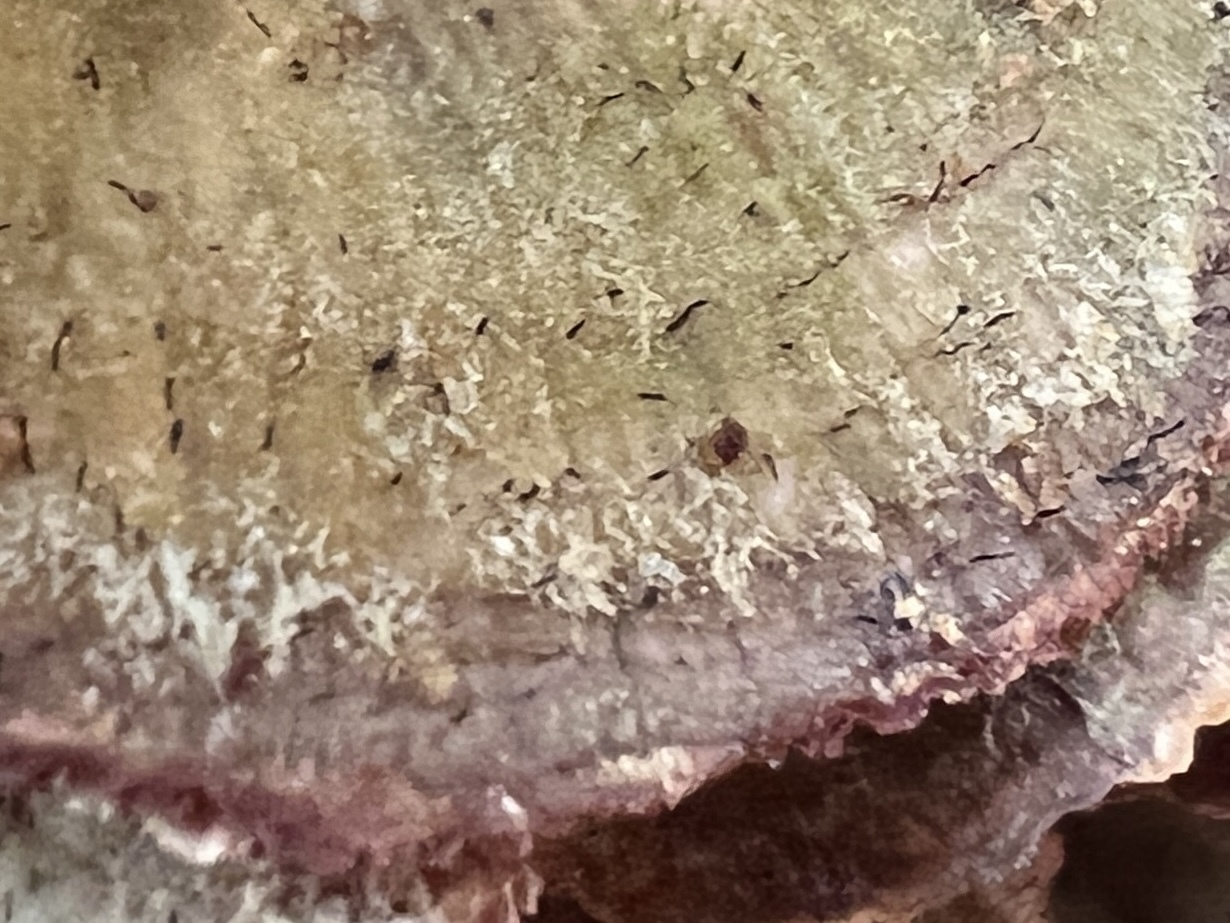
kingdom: Fungi
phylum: Ascomycota
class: Eurotiomycetes
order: Mycocaliciales
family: Mycocaliciaceae
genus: Phaeocalicium
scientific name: Phaeocalicium polyporaeum
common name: Fairy pins
